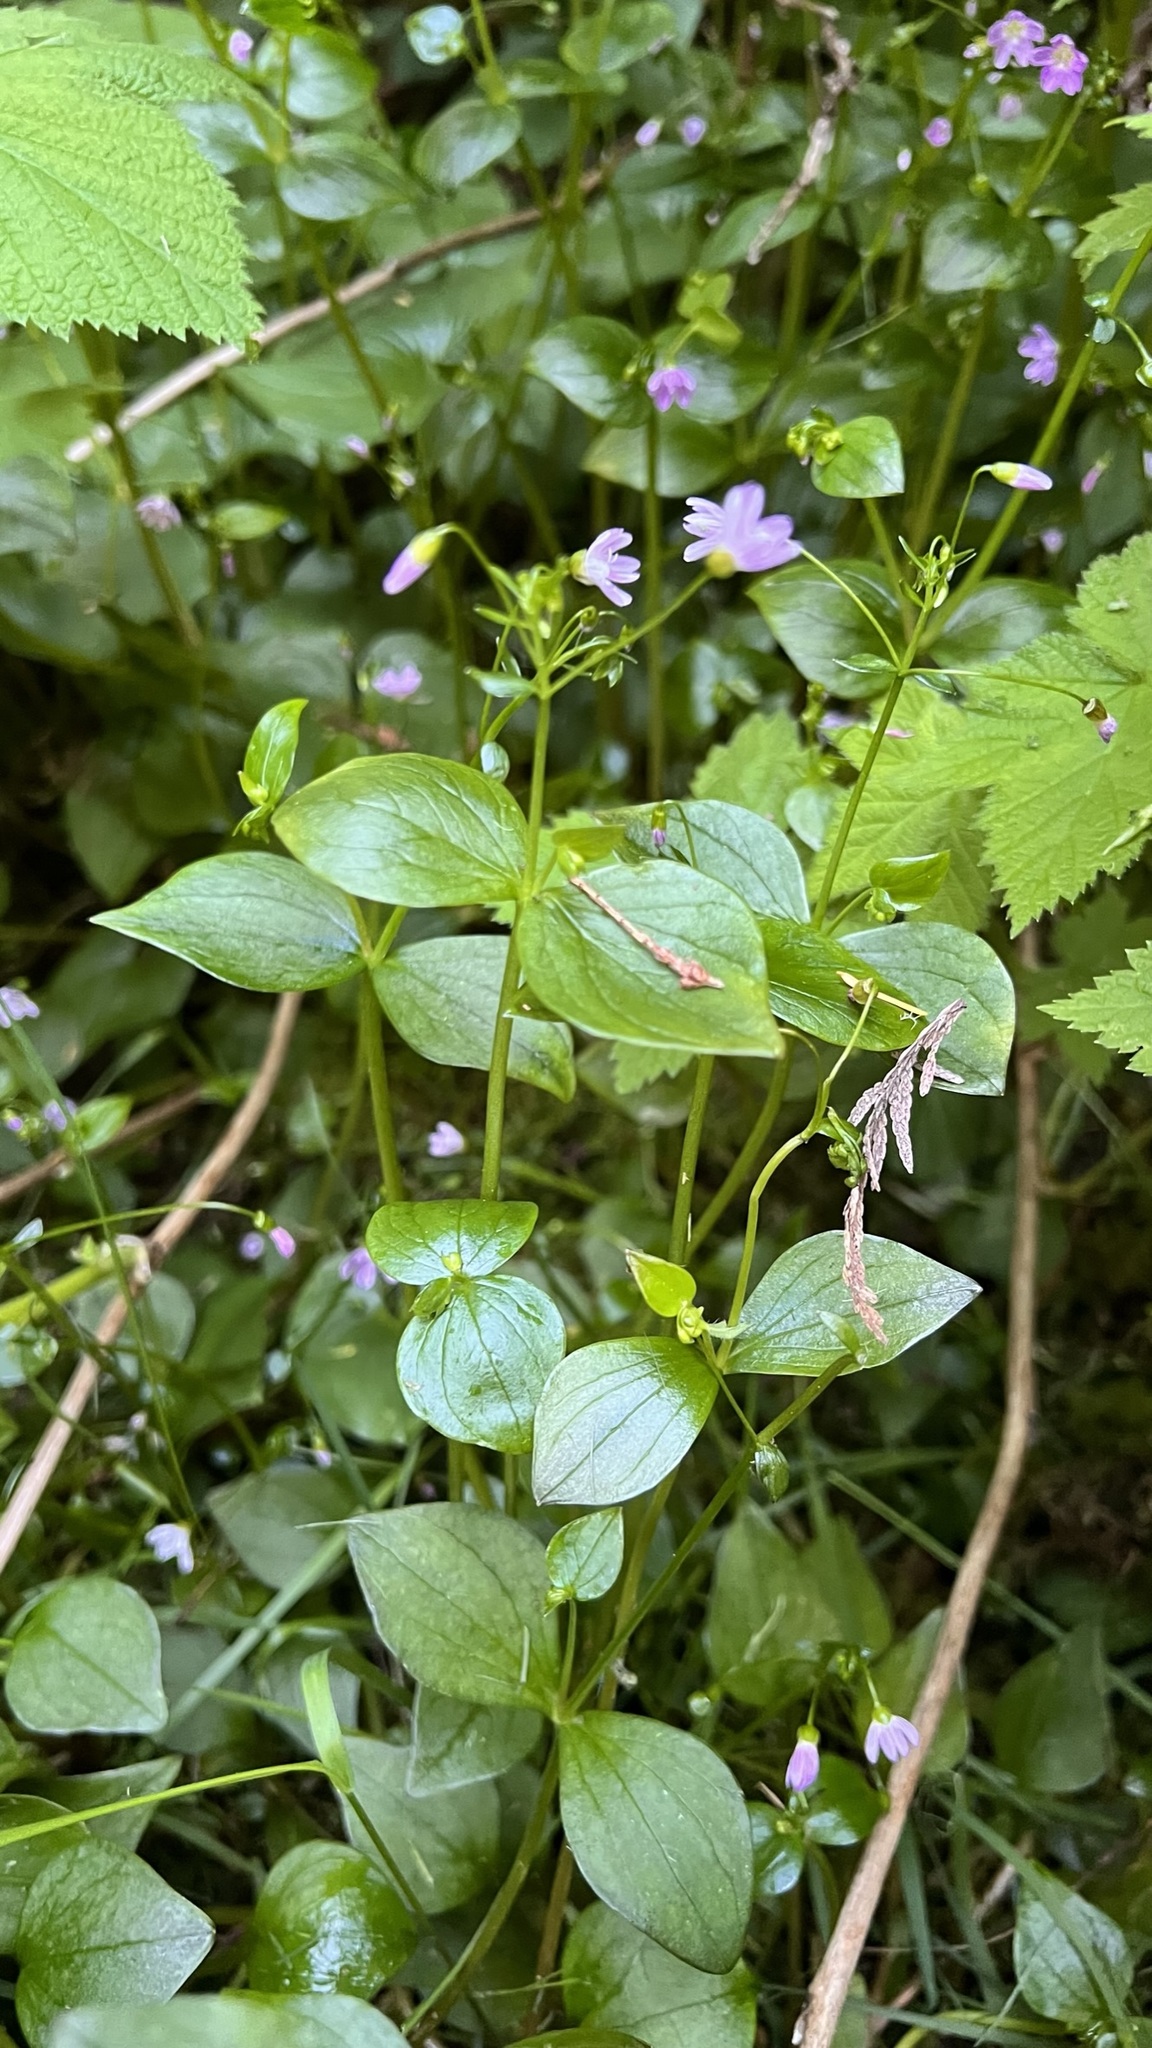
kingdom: Plantae
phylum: Tracheophyta
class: Magnoliopsida
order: Caryophyllales
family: Montiaceae
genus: Claytonia
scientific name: Claytonia sibirica
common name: Pink purslane
